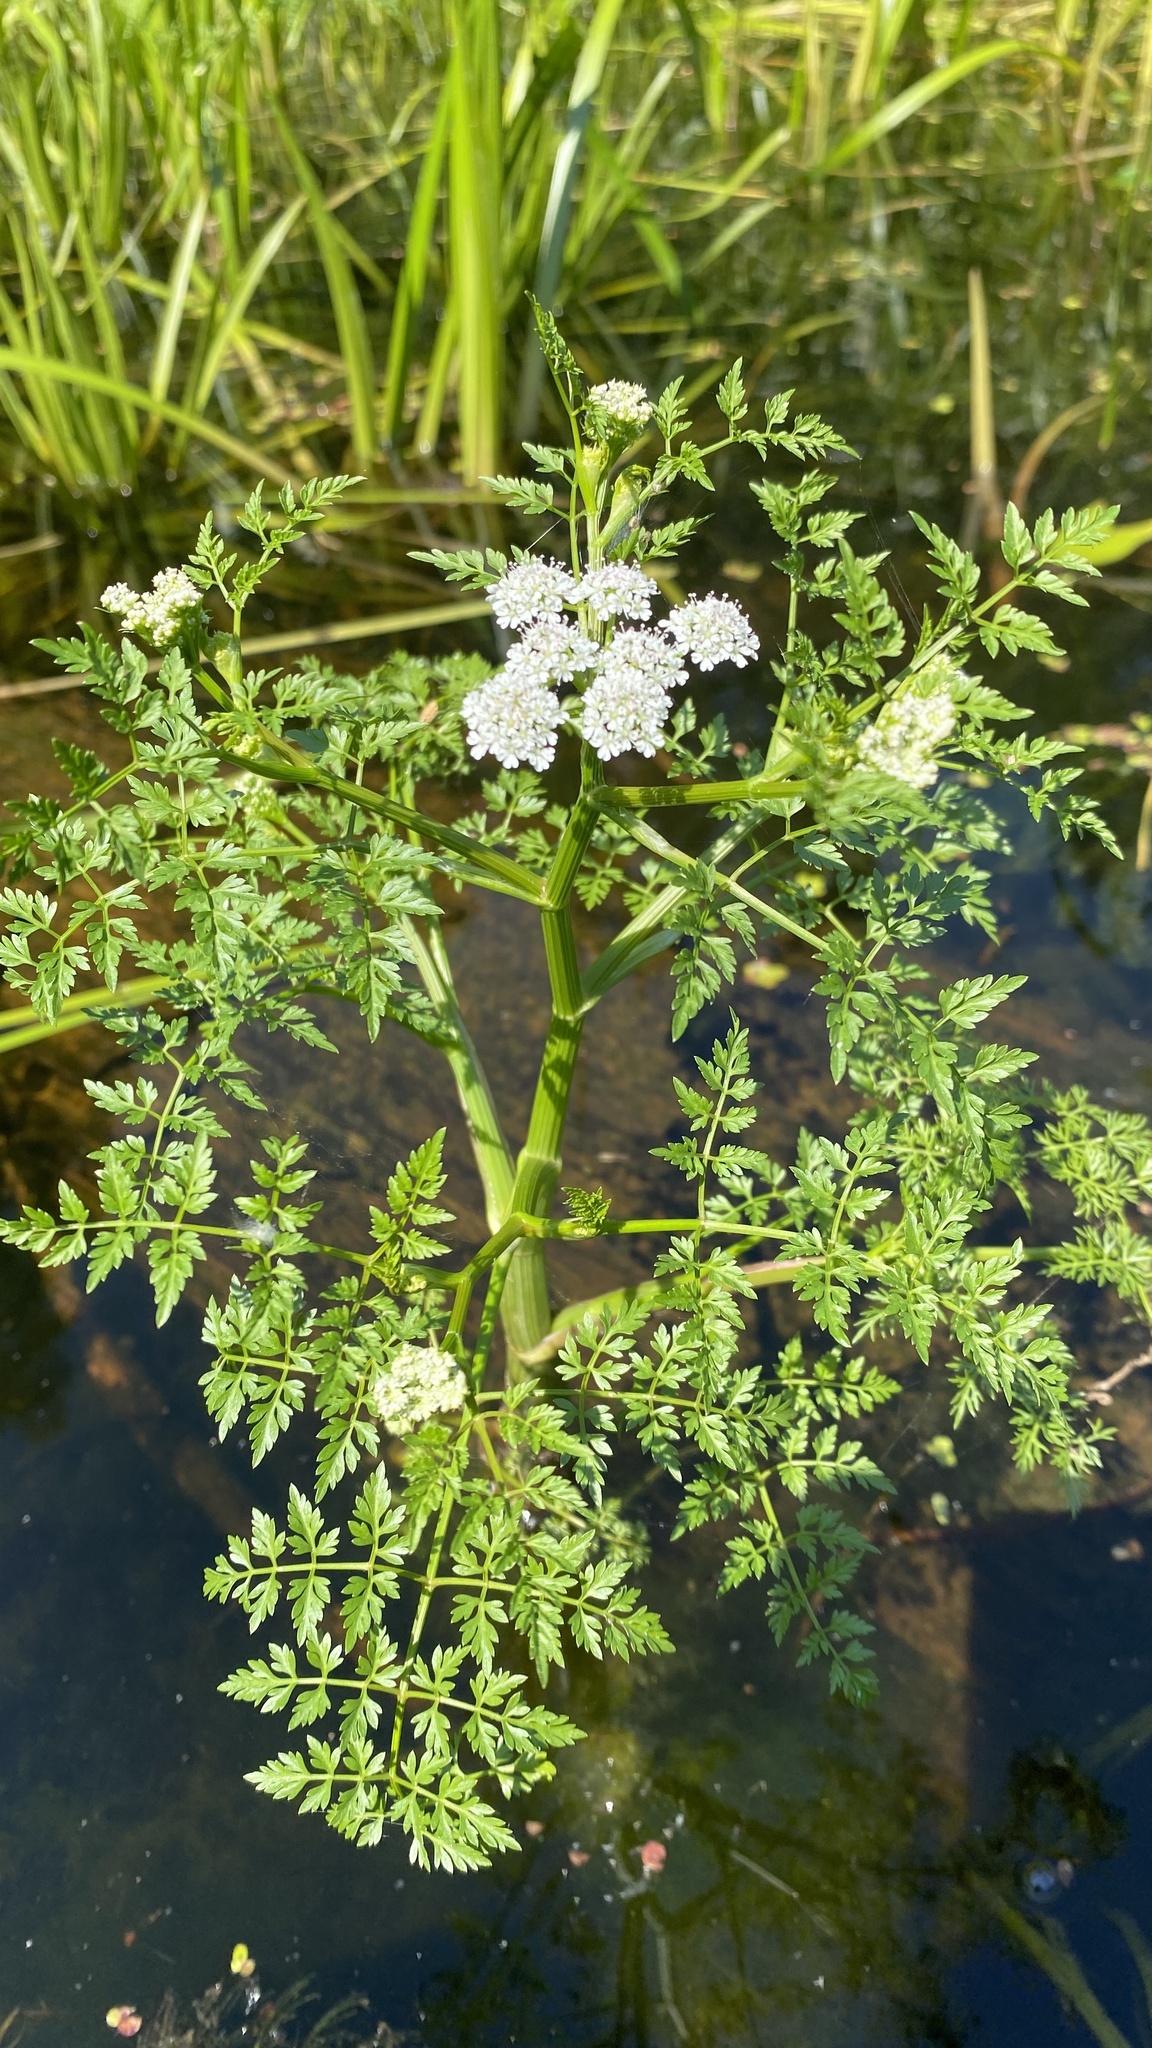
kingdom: Plantae
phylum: Tracheophyta
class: Magnoliopsida
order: Apiales
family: Apiaceae
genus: Oenanthe
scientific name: Oenanthe aquatica
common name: Fine-leaved water-dropwort
